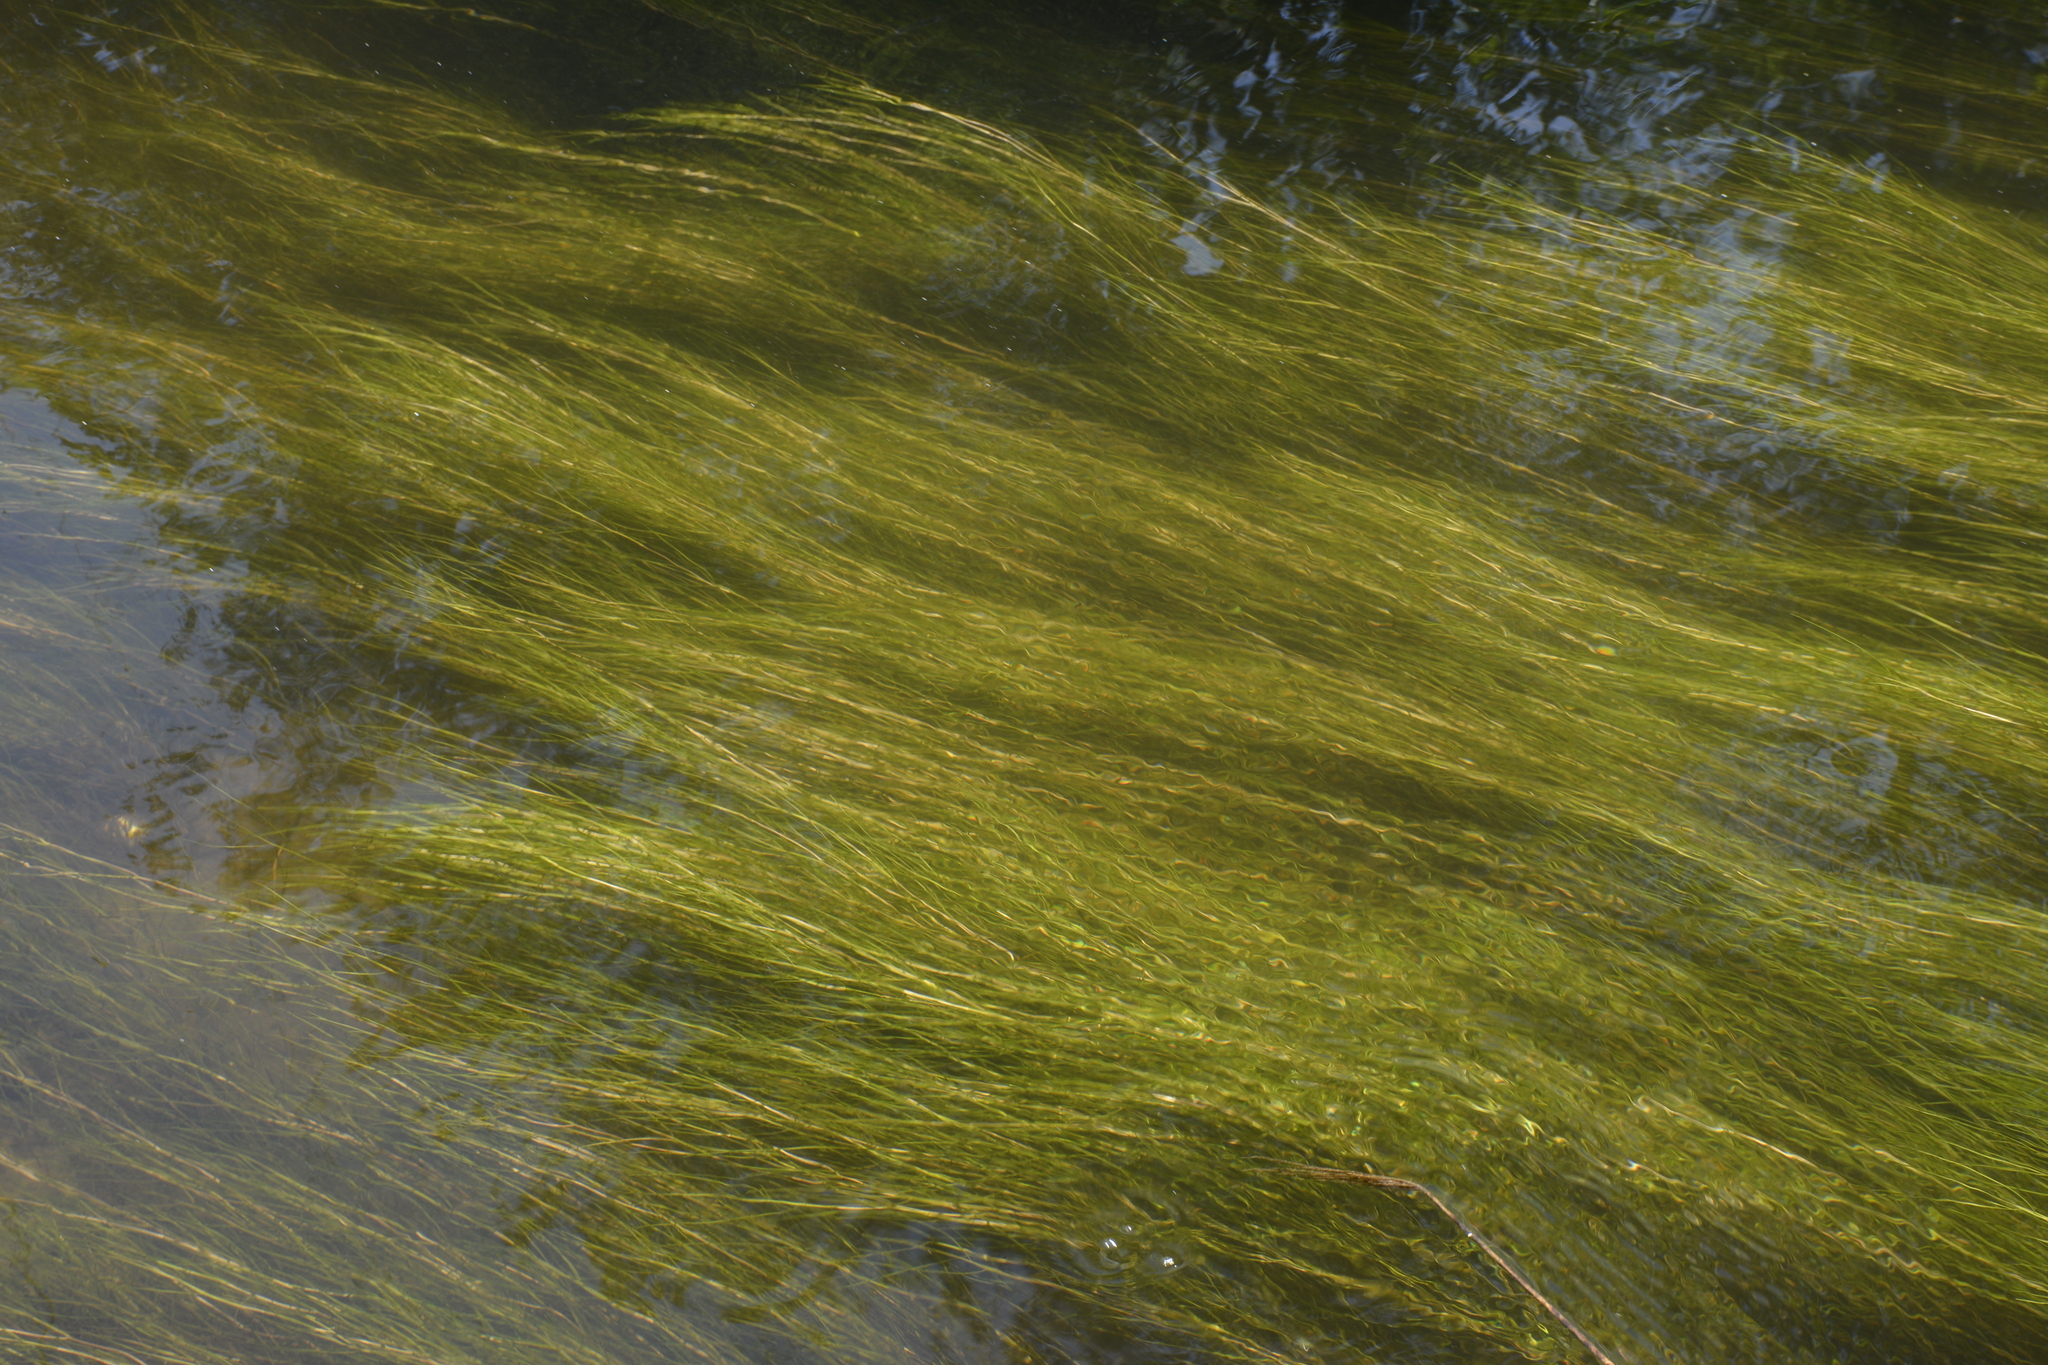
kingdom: Plantae
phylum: Tracheophyta
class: Liliopsida
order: Alismatales
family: Potamogetonaceae
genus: Stuckenia
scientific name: Stuckenia pectinata
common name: Sago pondweed
